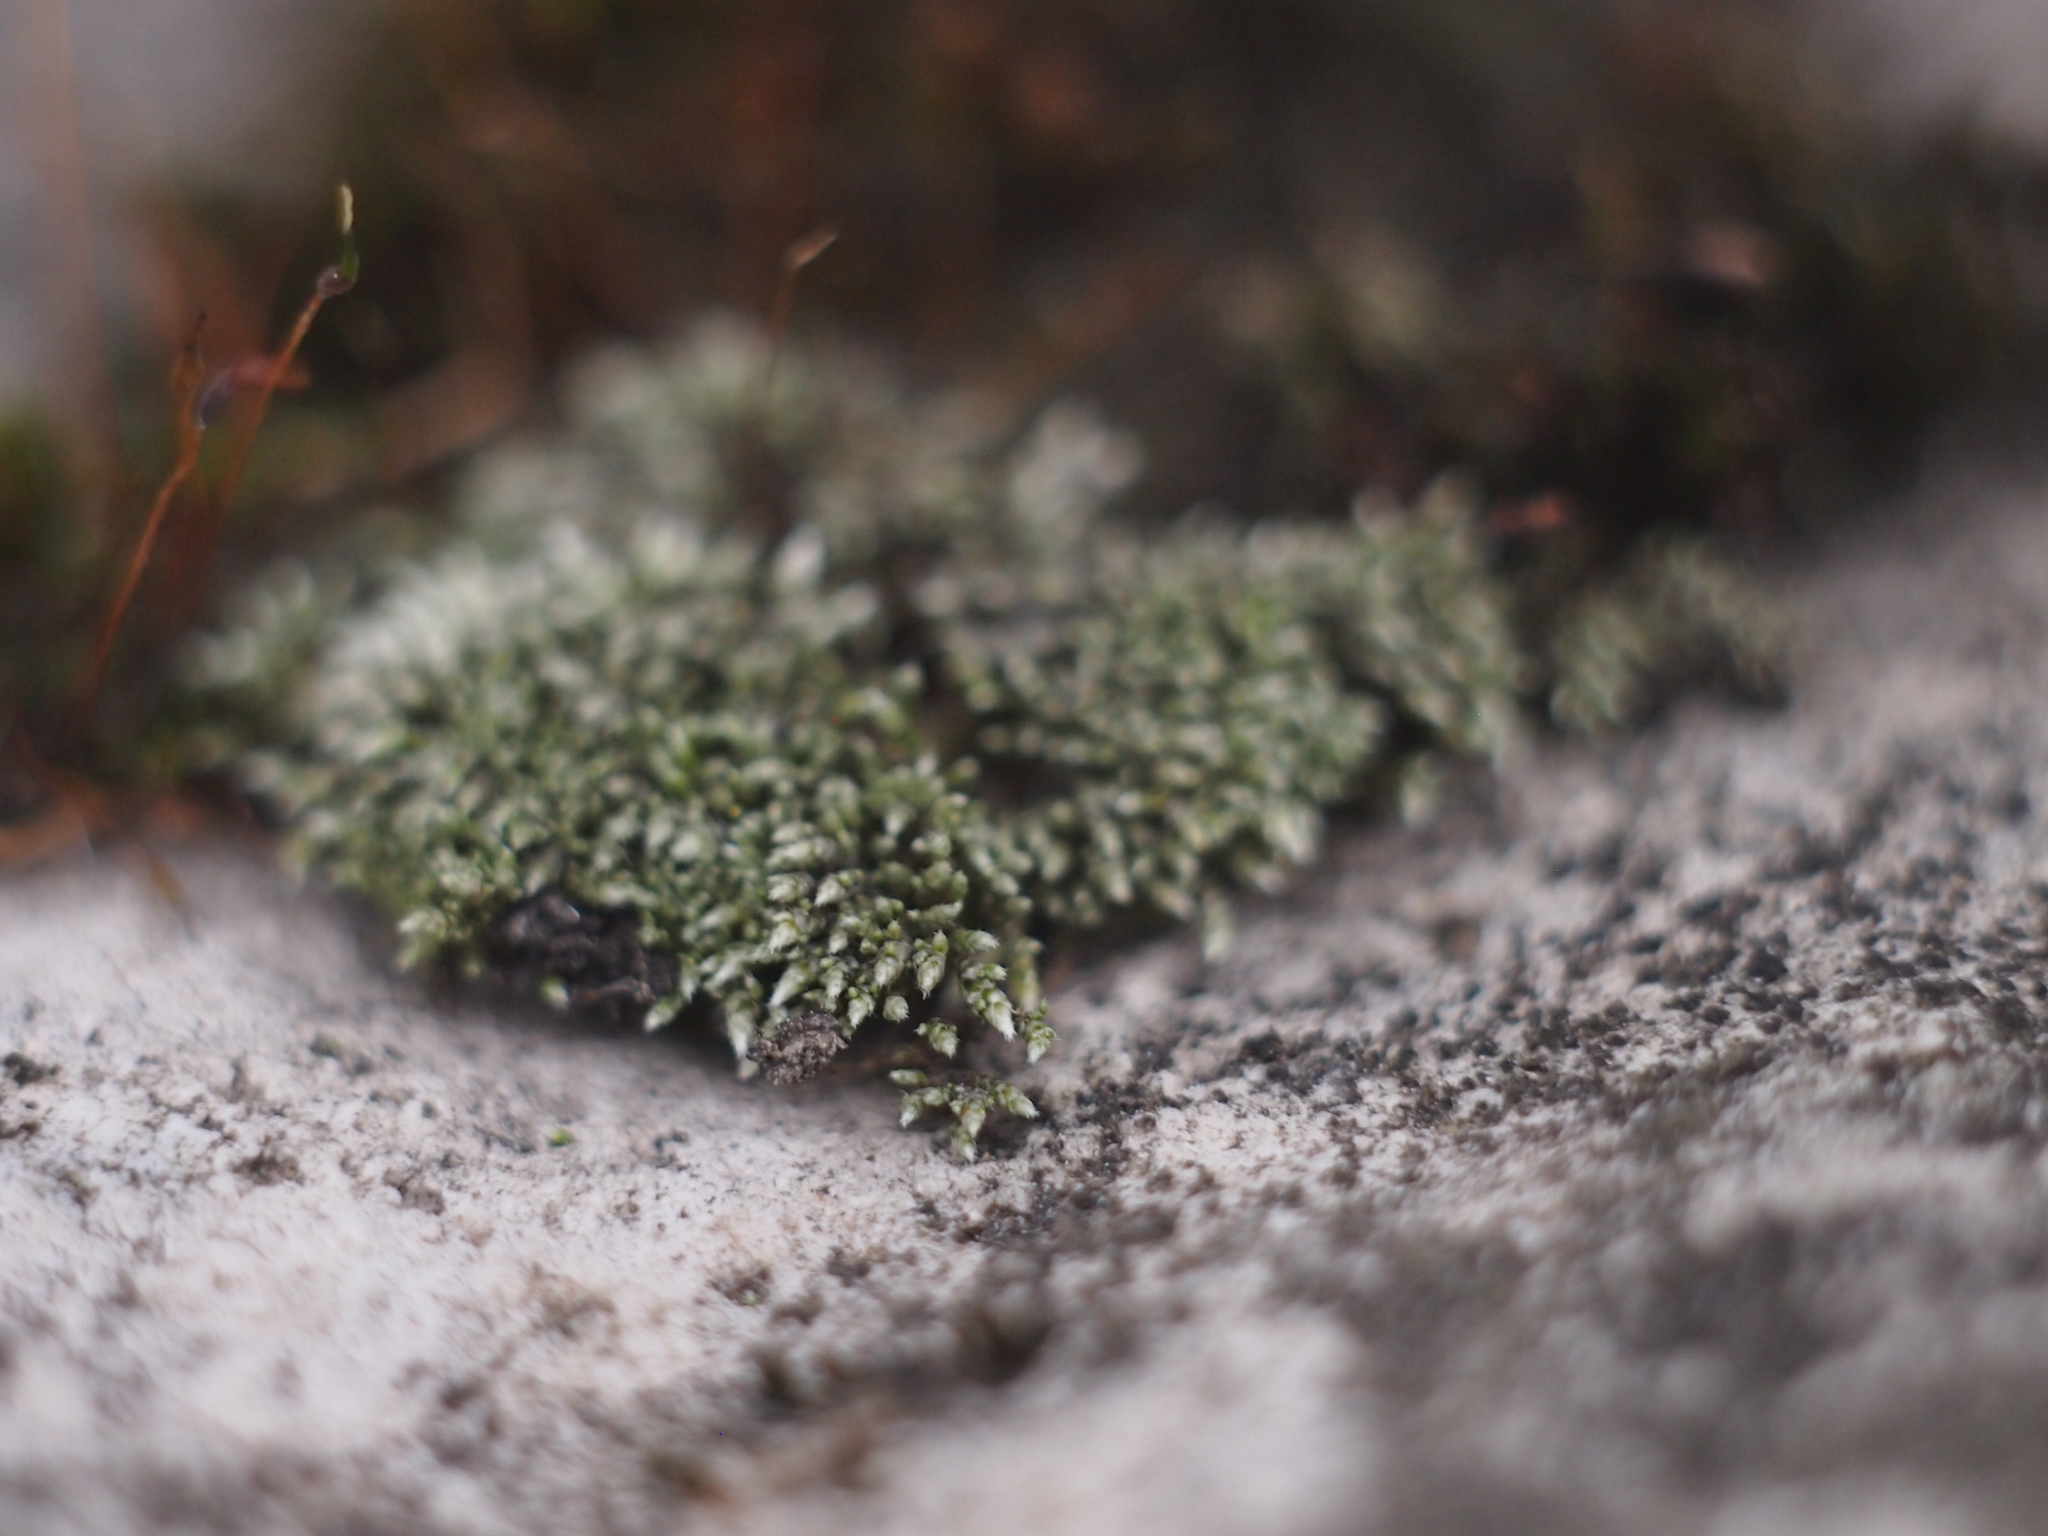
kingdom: Plantae
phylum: Bryophyta
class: Bryopsida
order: Bryales
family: Bryaceae
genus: Bryum
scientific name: Bryum argenteum
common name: Silver-moss
